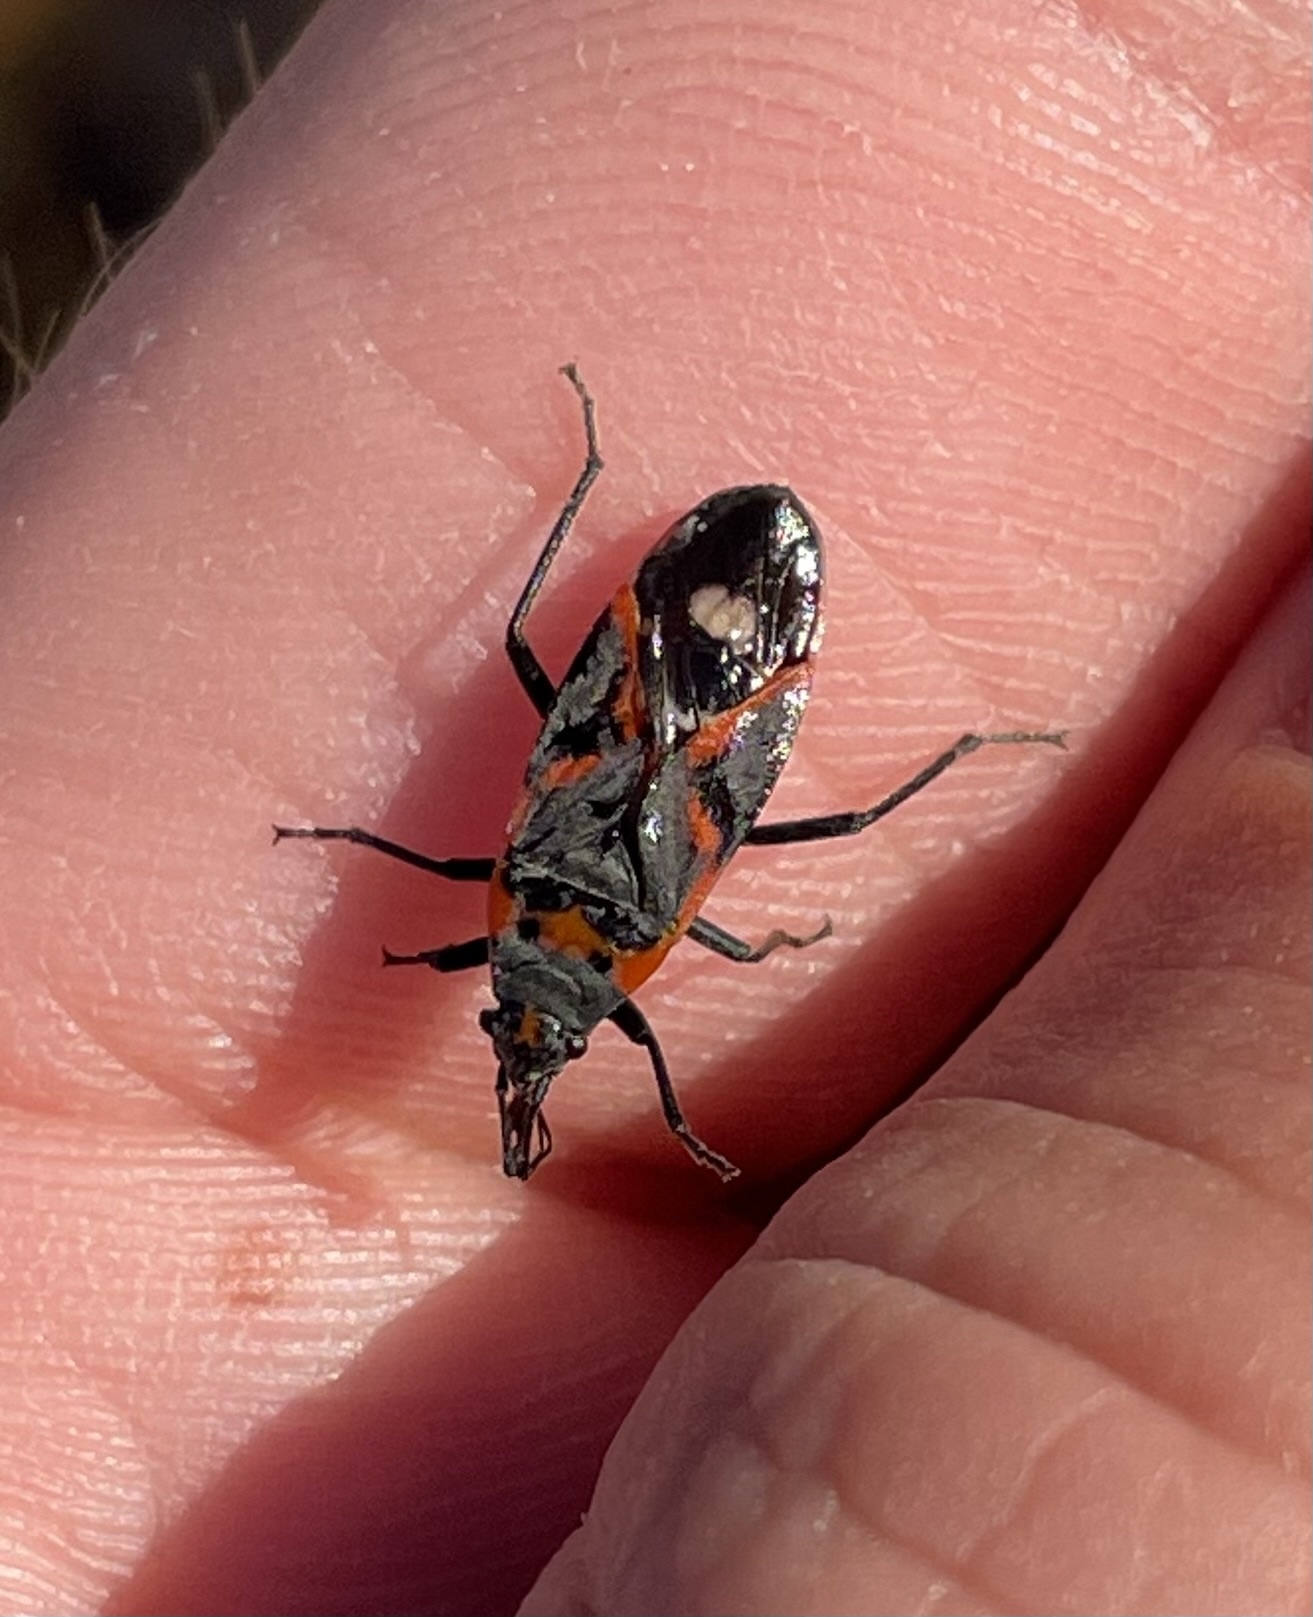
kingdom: Animalia
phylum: Arthropoda
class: Insecta
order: Hemiptera
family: Lygaeidae
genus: Lygaeus
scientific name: Lygaeus kalmii
